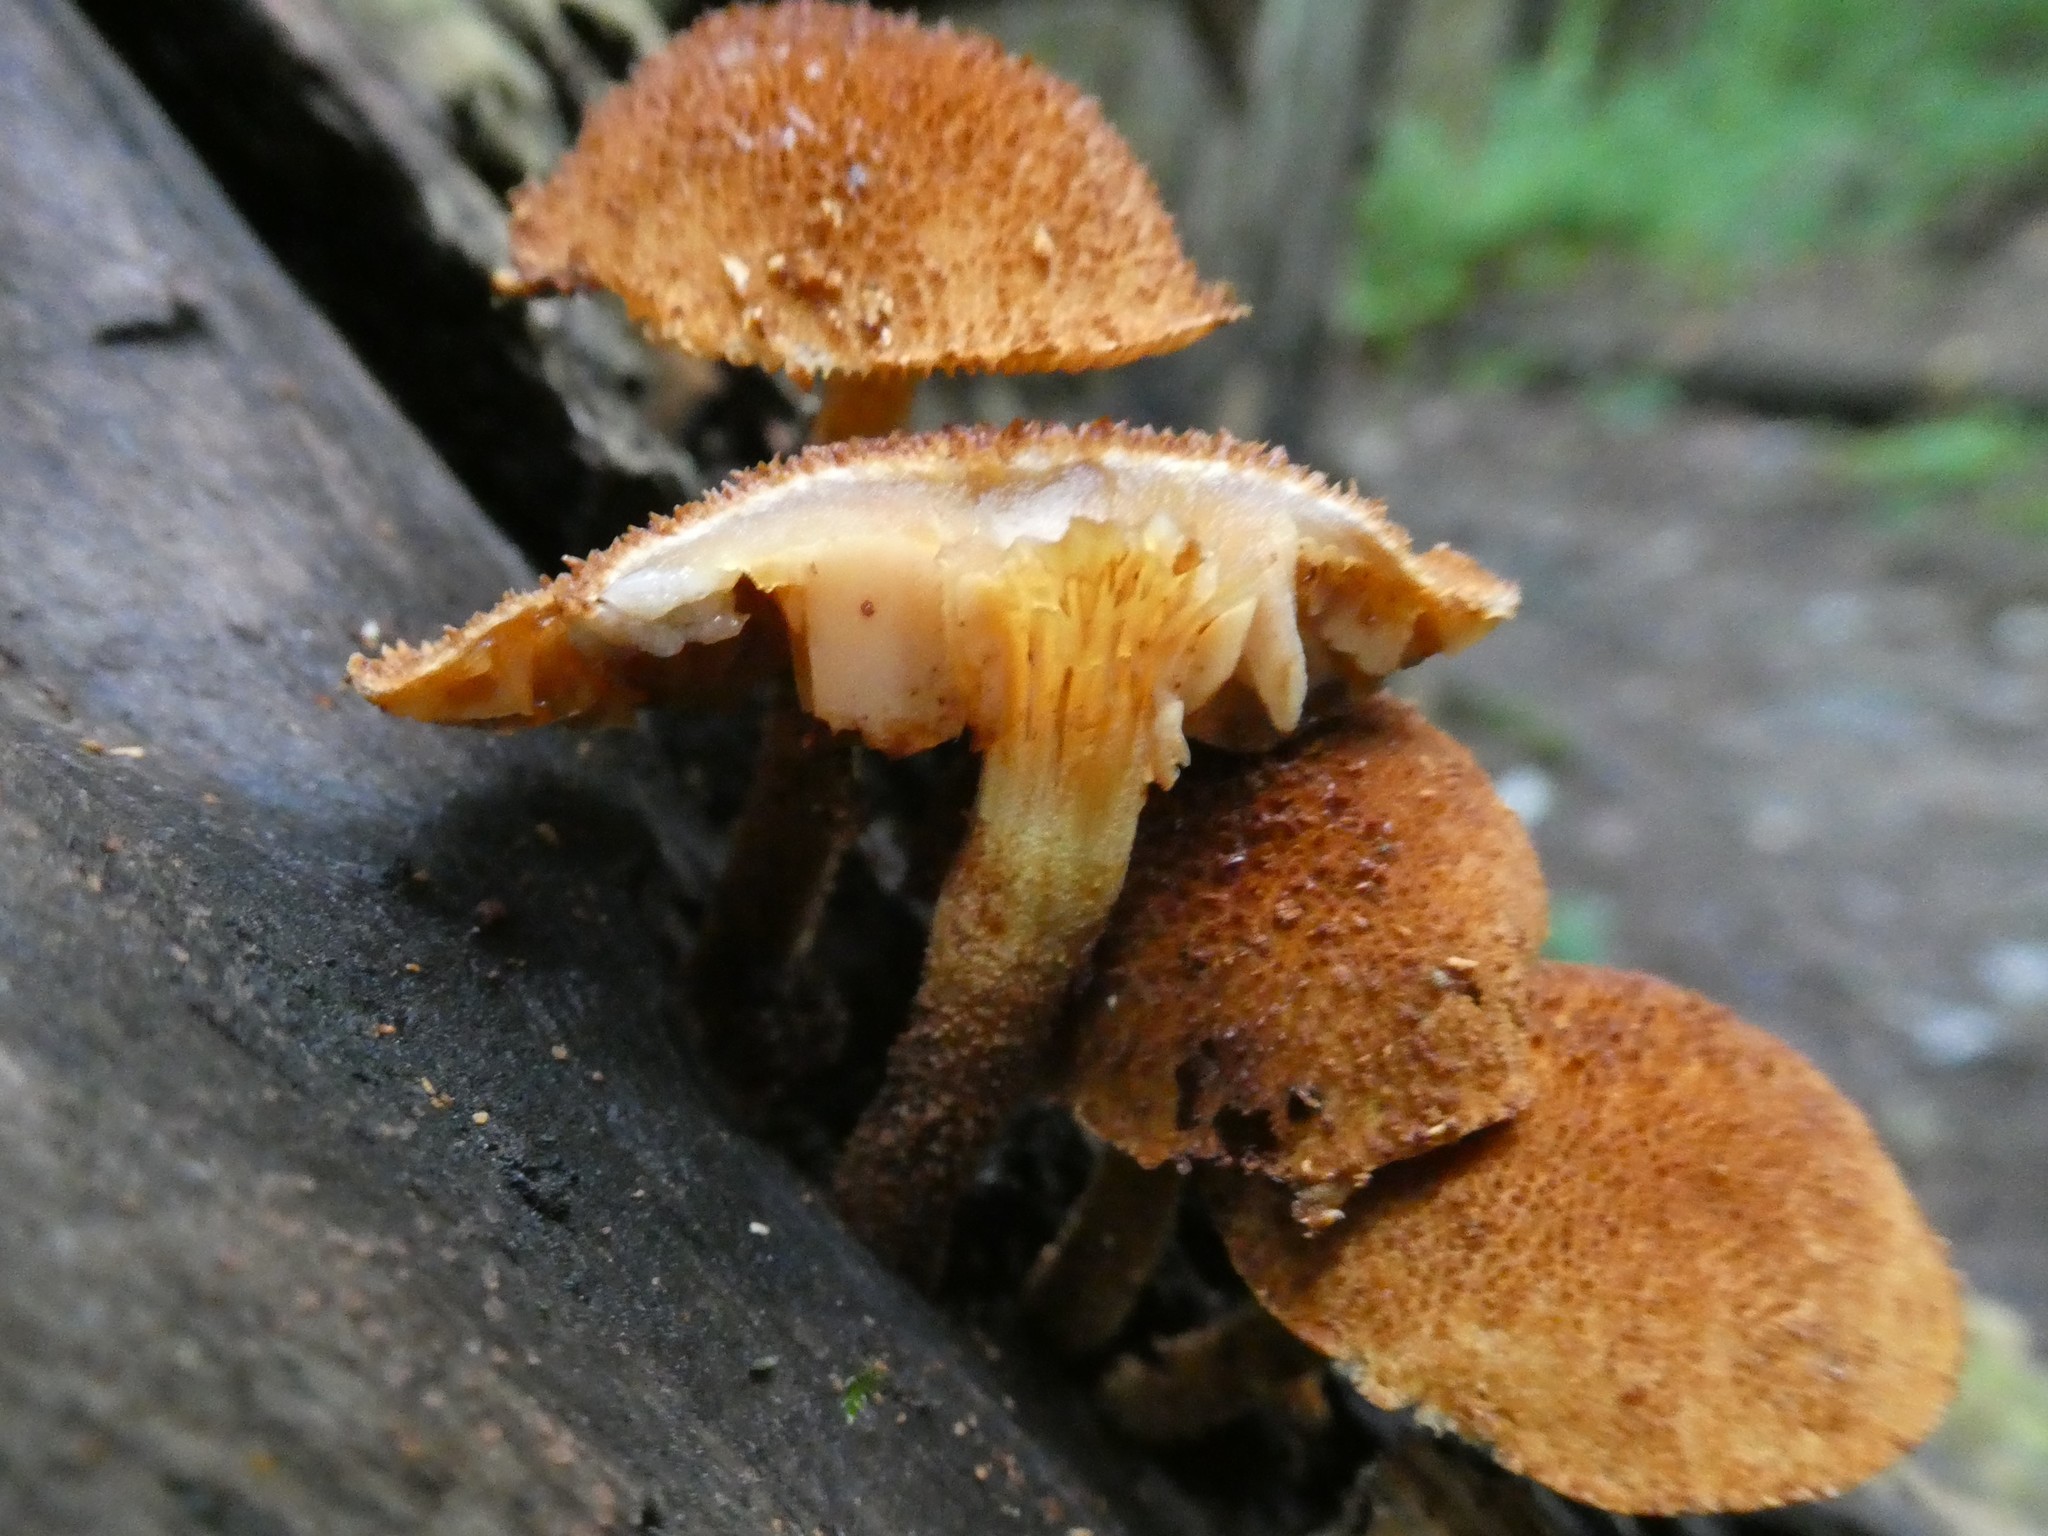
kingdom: Fungi
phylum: Basidiomycota
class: Agaricomycetes
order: Agaricales
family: Tubariaceae
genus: Flammulaster
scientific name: Flammulaster erinaceellus
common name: Powder-scale pholiota
